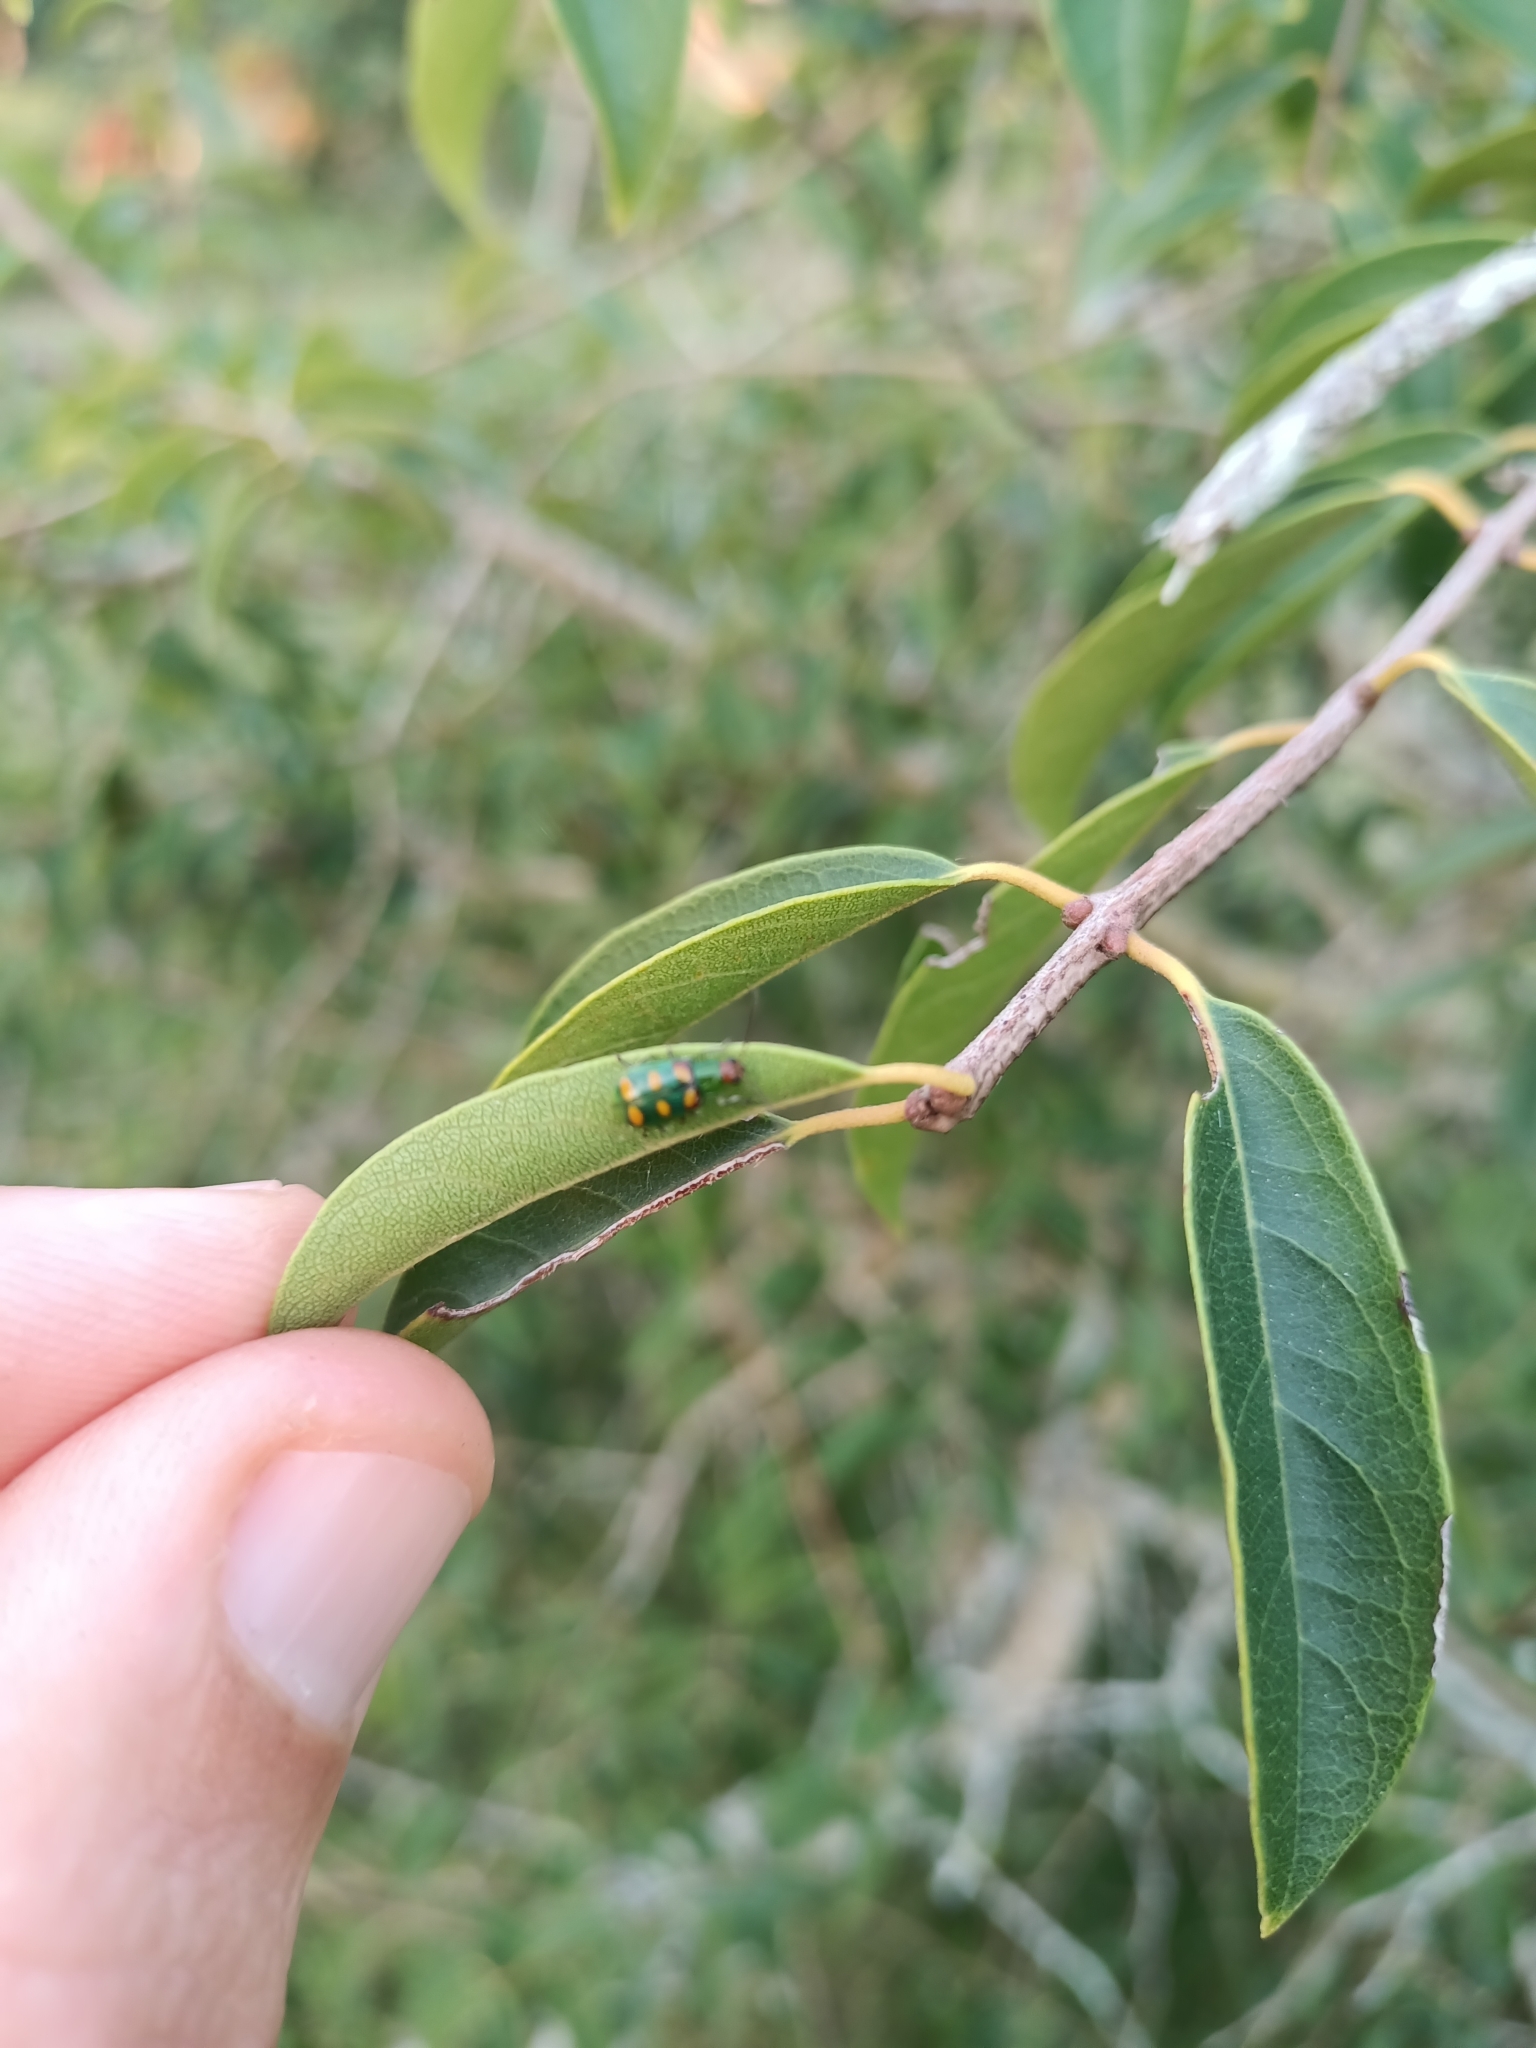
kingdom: Animalia
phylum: Arthropoda
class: Insecta
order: Coleoptera
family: Chrysomelidae
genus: Diabrotica
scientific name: Diabrotica speciosa
